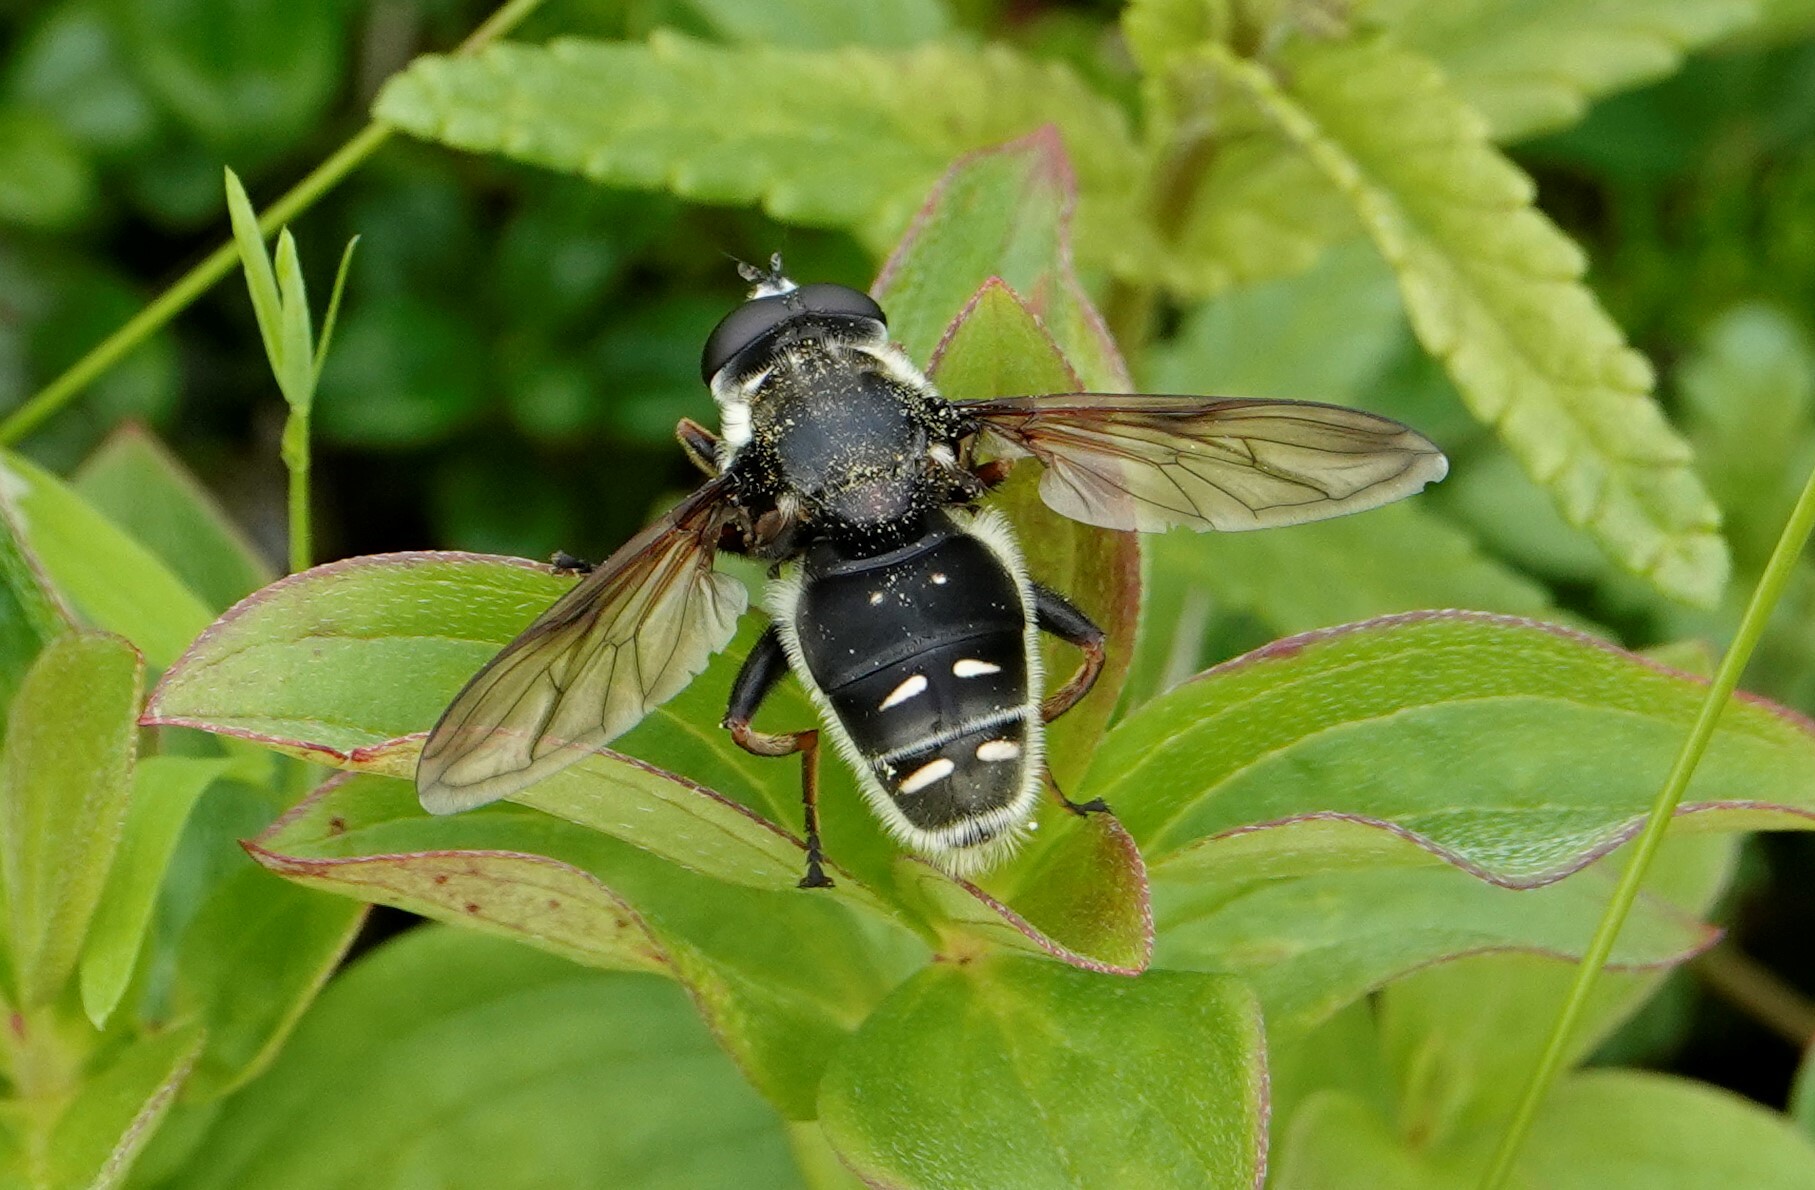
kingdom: Animalia
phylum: Arthropoda
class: Insecta
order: Diptera
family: Syrphidae
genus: Sericomyia
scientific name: Sericomyia militaris
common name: Narrow-banded pond fly
